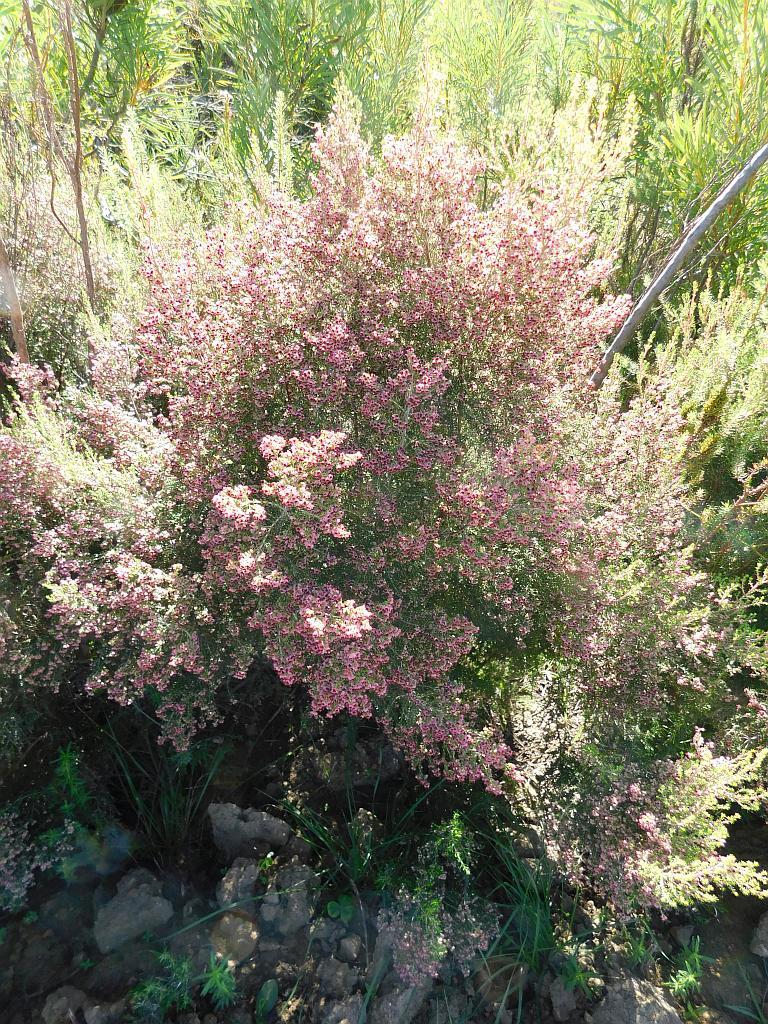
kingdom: Plantae
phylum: Tracheophyta
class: Magnoliopsida
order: Ericales
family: Ericaceae
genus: Erica
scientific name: Erica peltata
